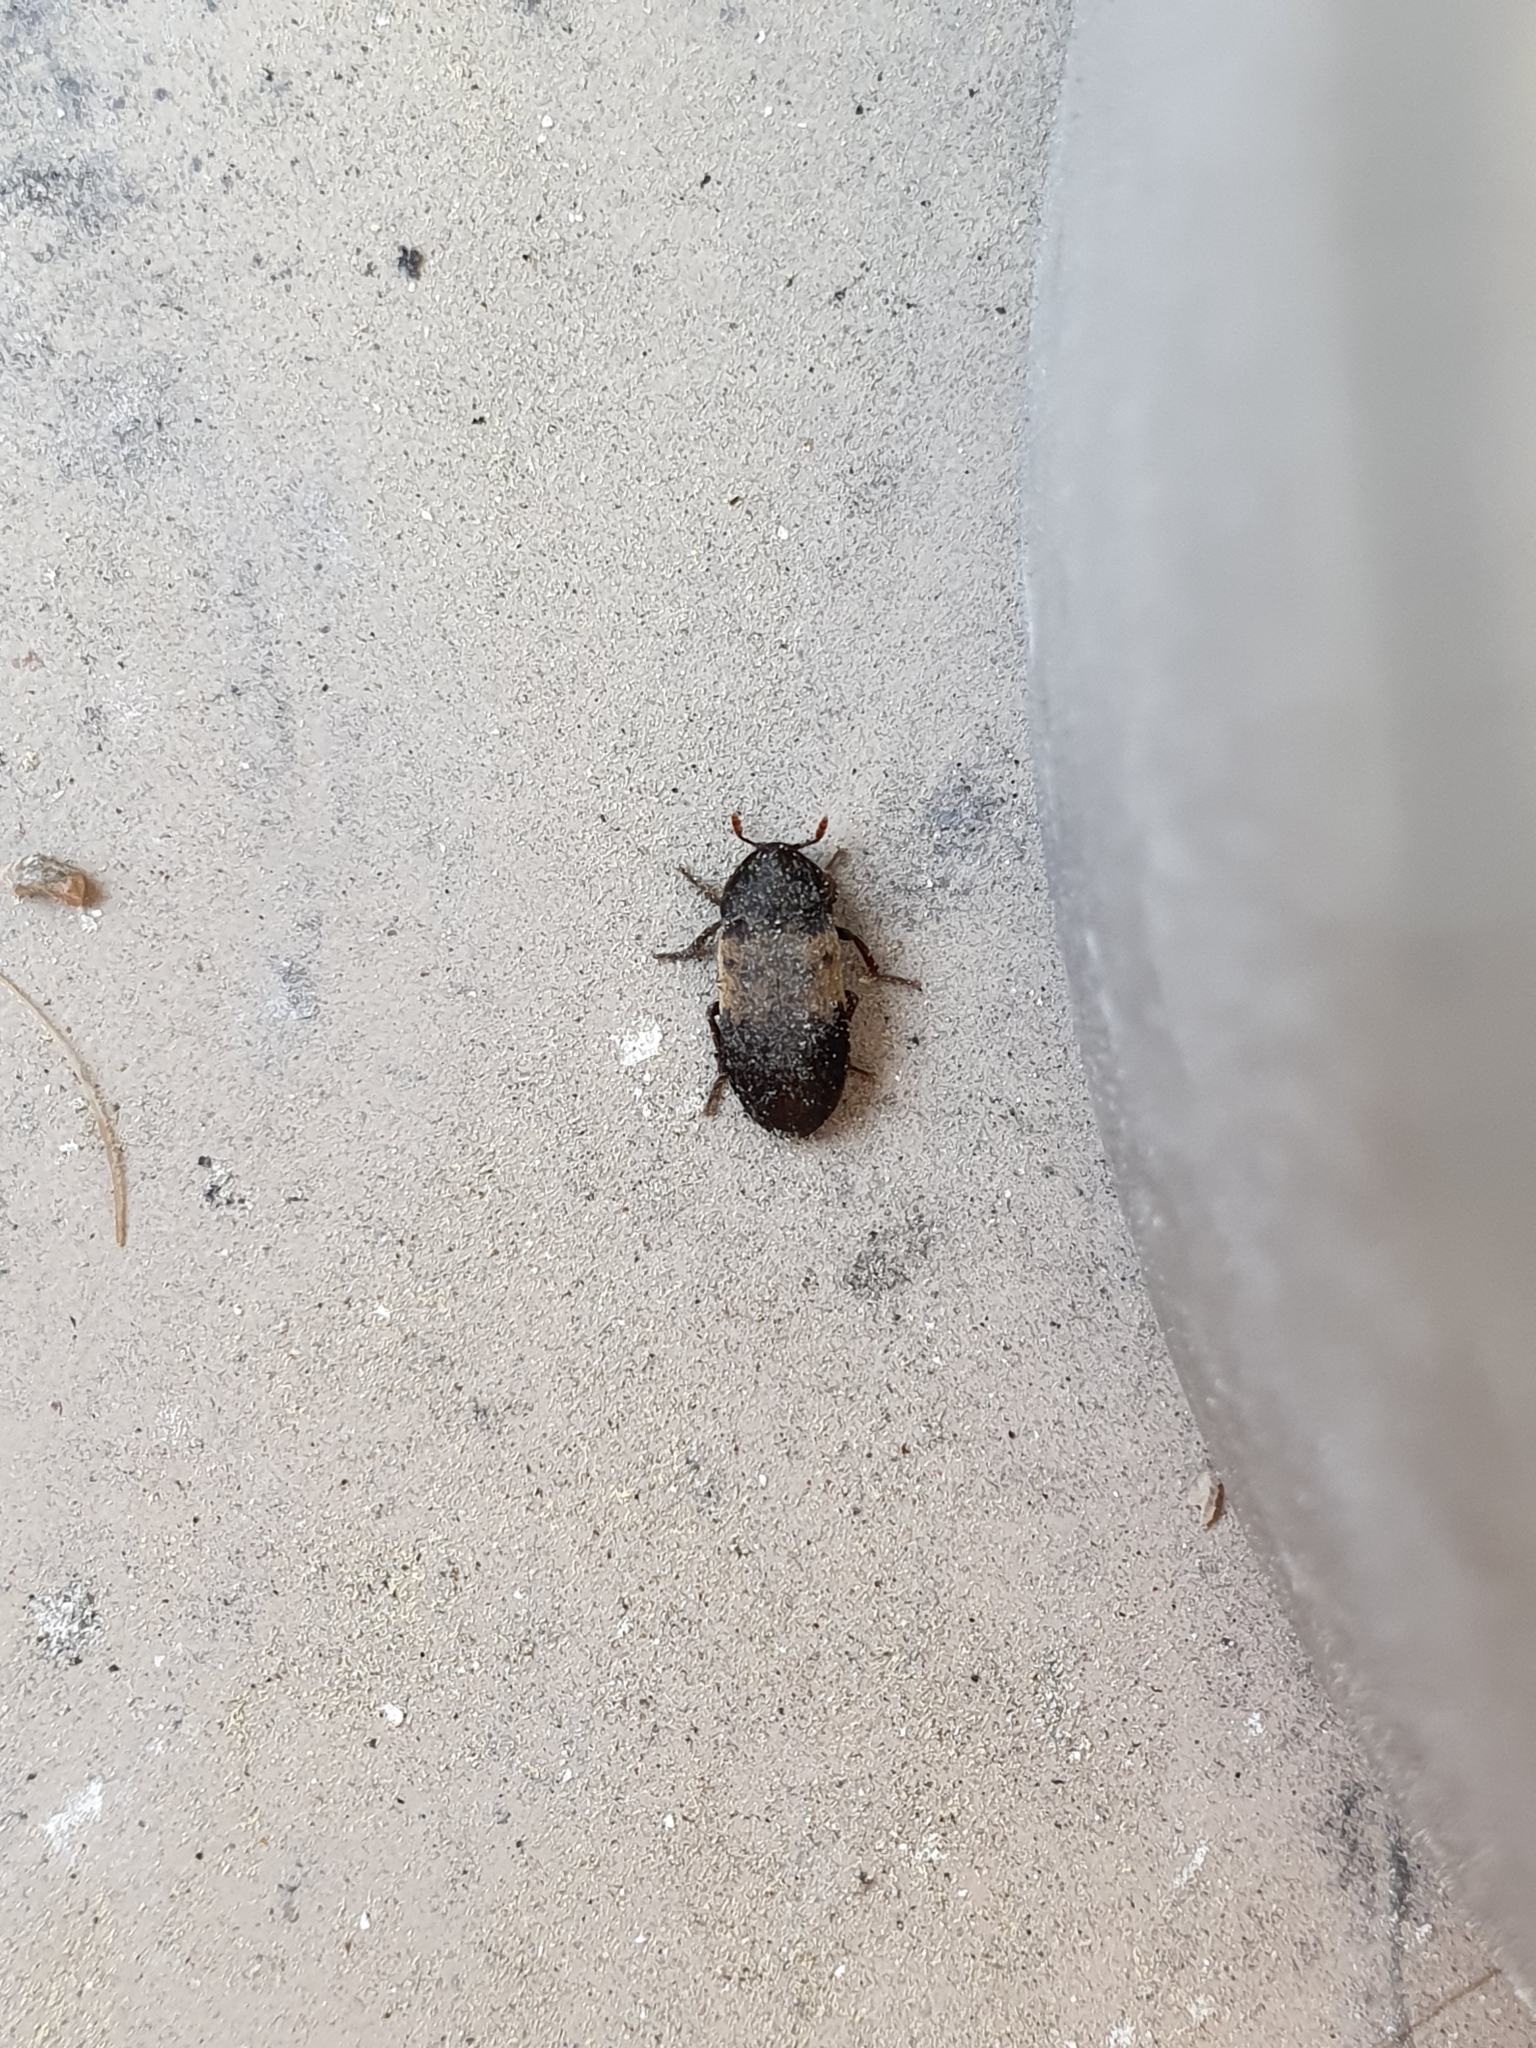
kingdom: Animalia
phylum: Arthropoda
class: Insecta
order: Coleoptera
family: Dermestidae
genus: Dermestes
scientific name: Dermestes lardarius
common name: Larder beetle
